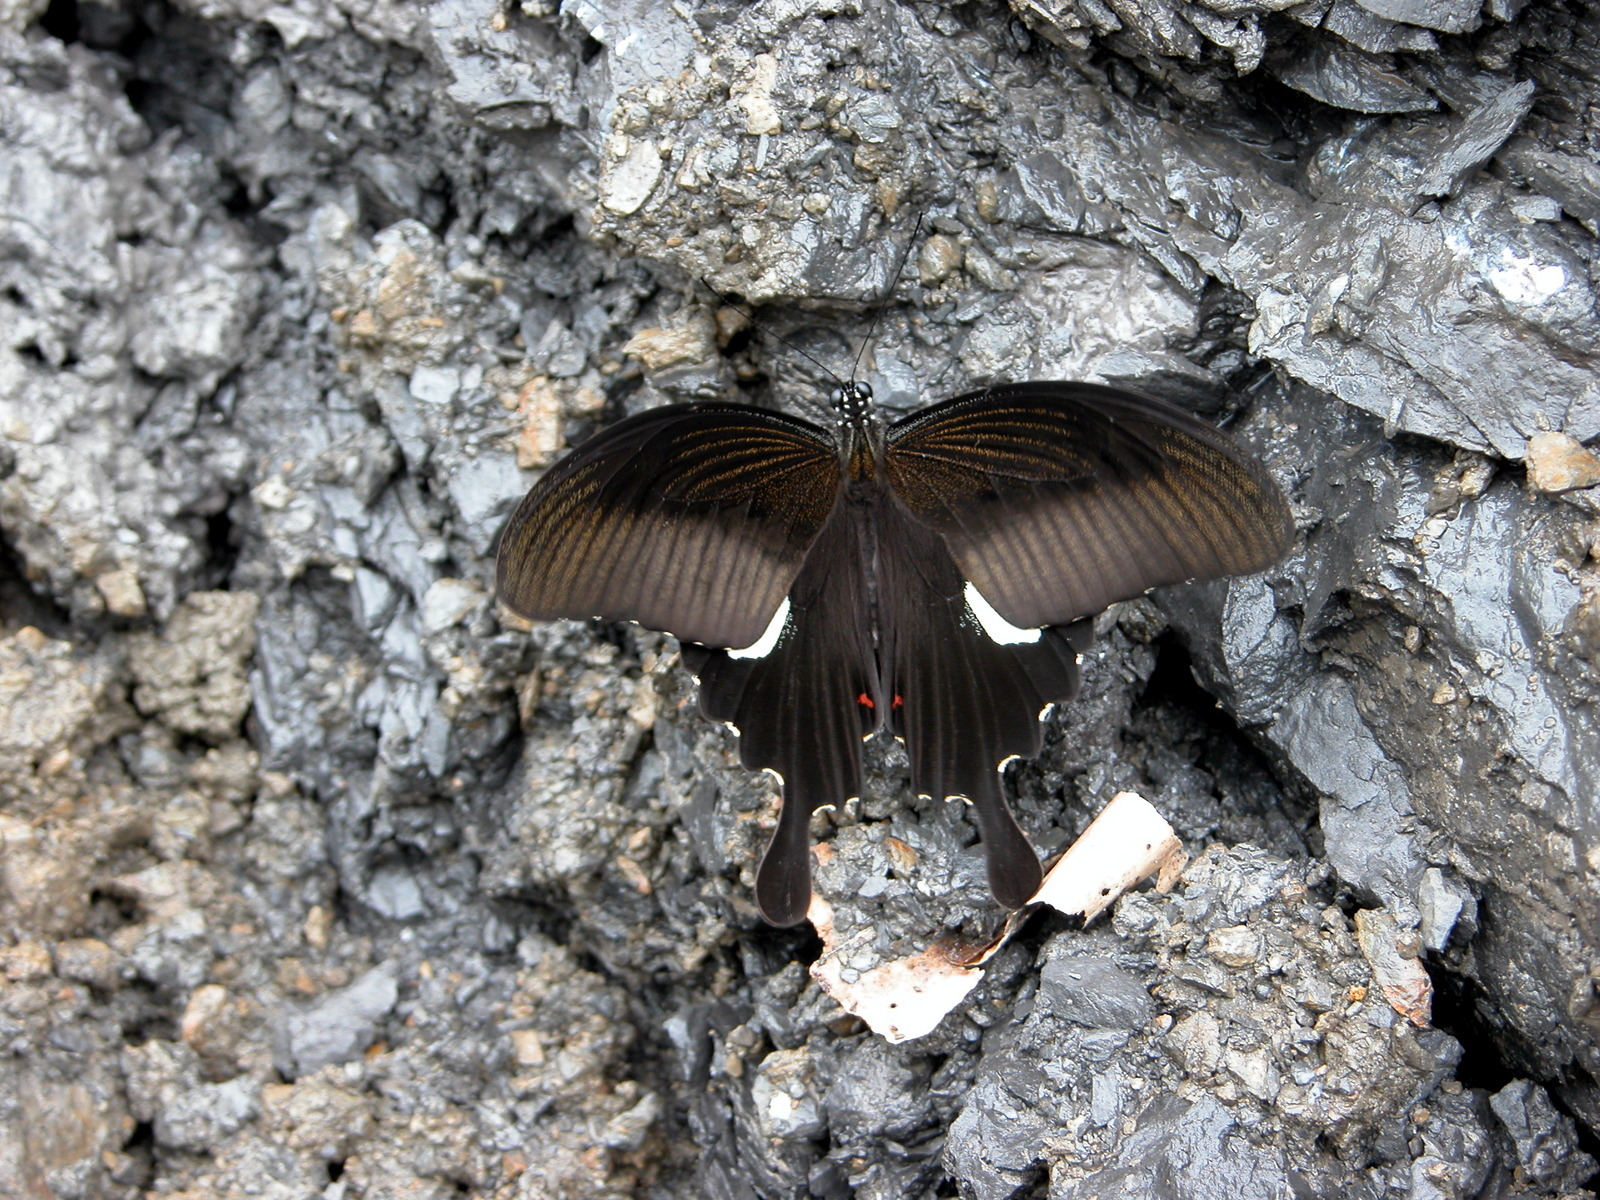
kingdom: Animalia
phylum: Arthropoda
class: Insecta
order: Lepidoptera
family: Papilionidae
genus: Papilio
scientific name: Papilio helenus
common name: Red helen
